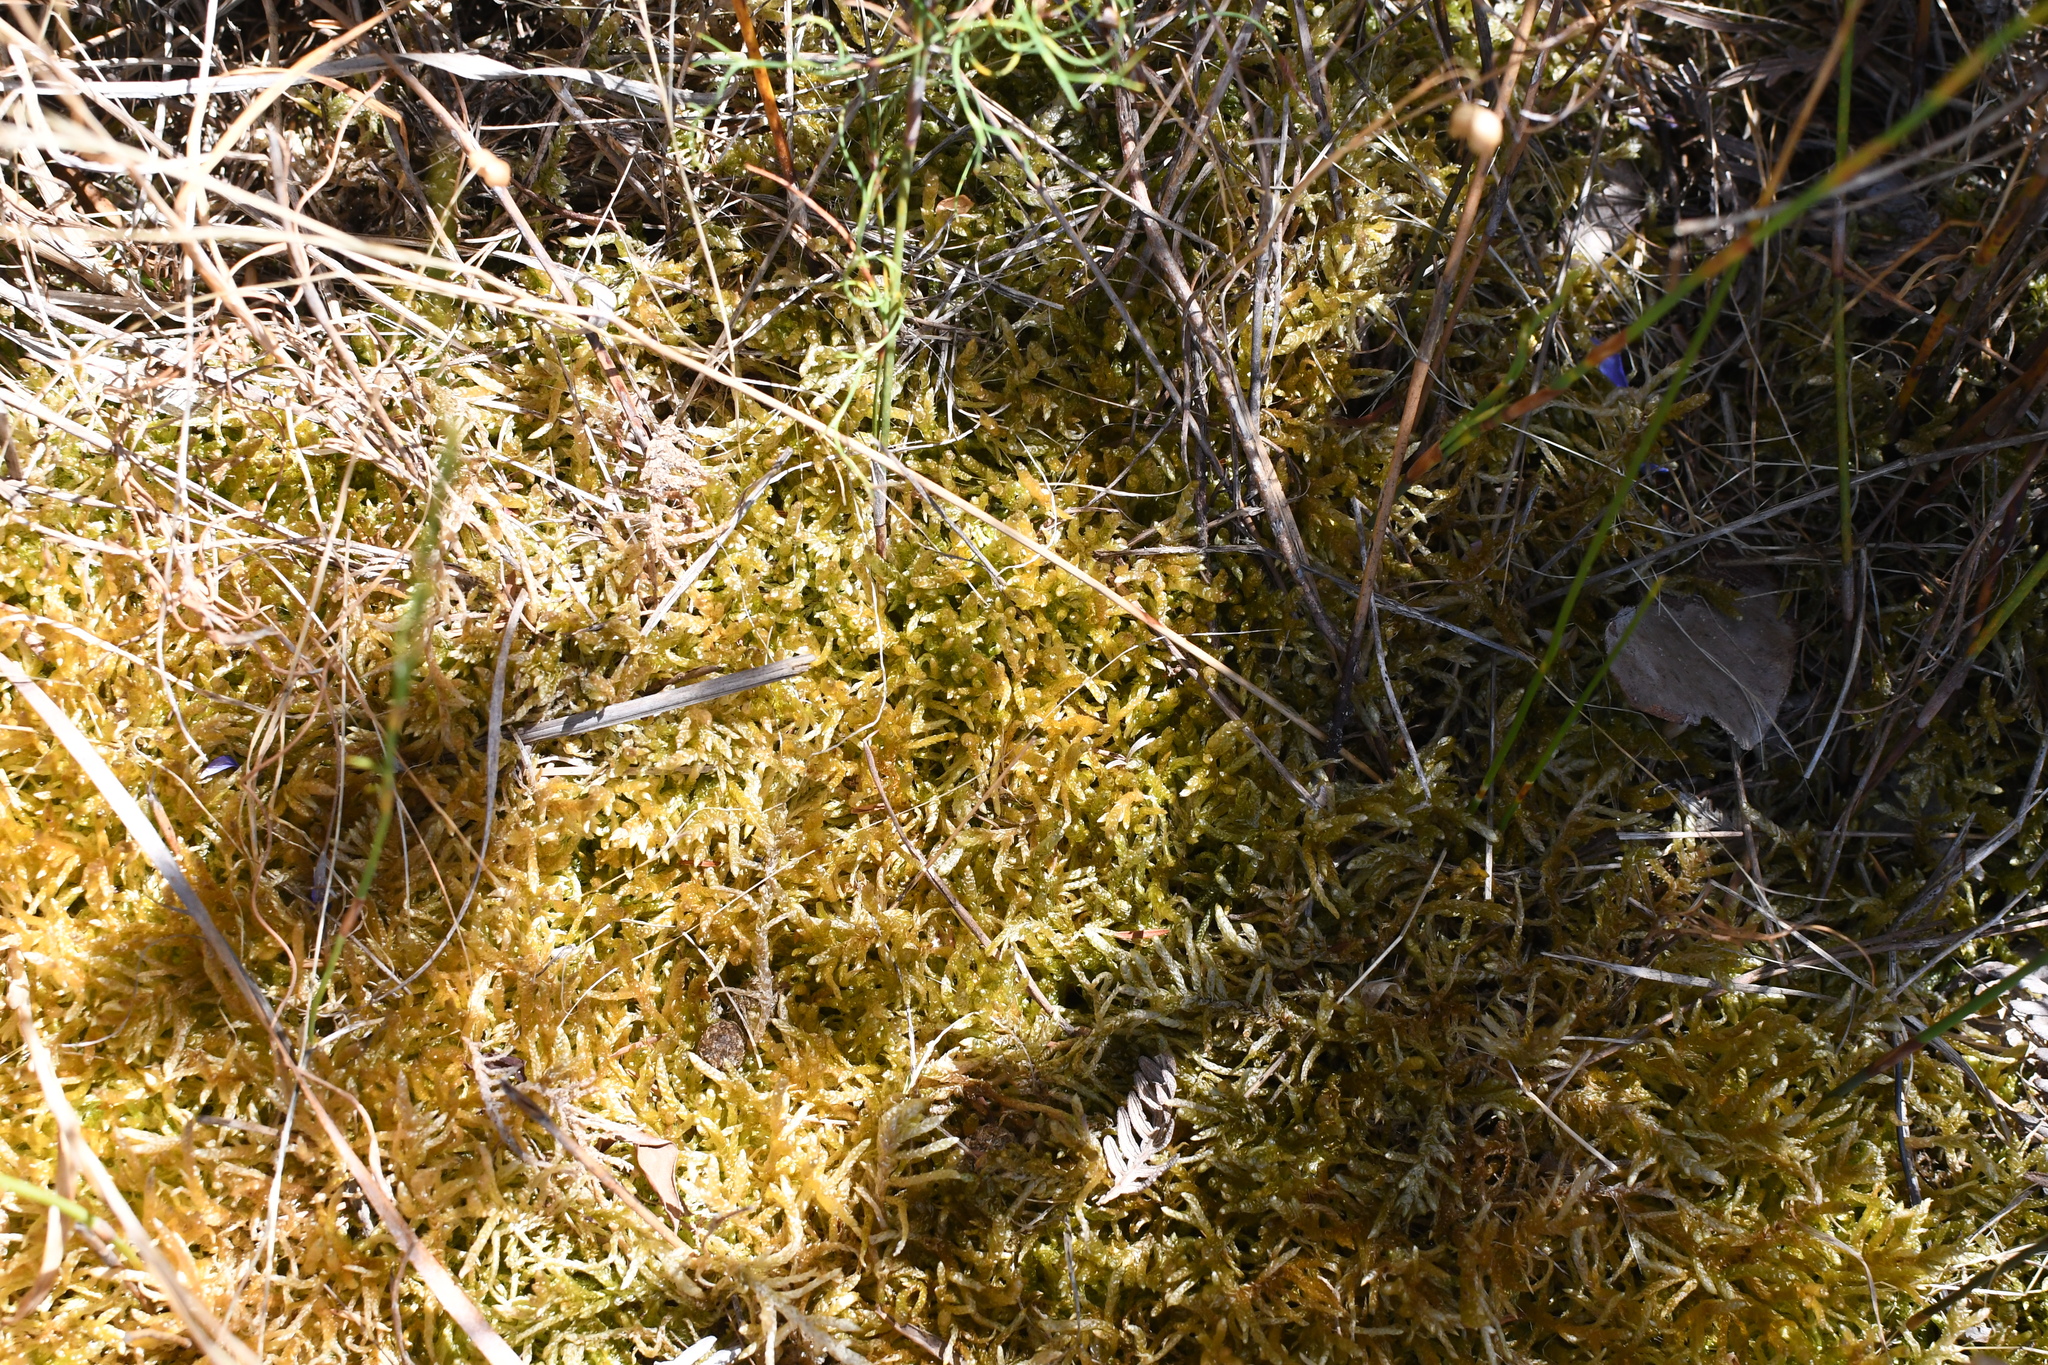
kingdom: Plantae
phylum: Bryophyta
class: Bryopsida
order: Hypnales
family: Brachytheciaceae
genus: Pseudoscleropodium
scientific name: Pseudoscleropodium purum
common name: Neat feather-moss
